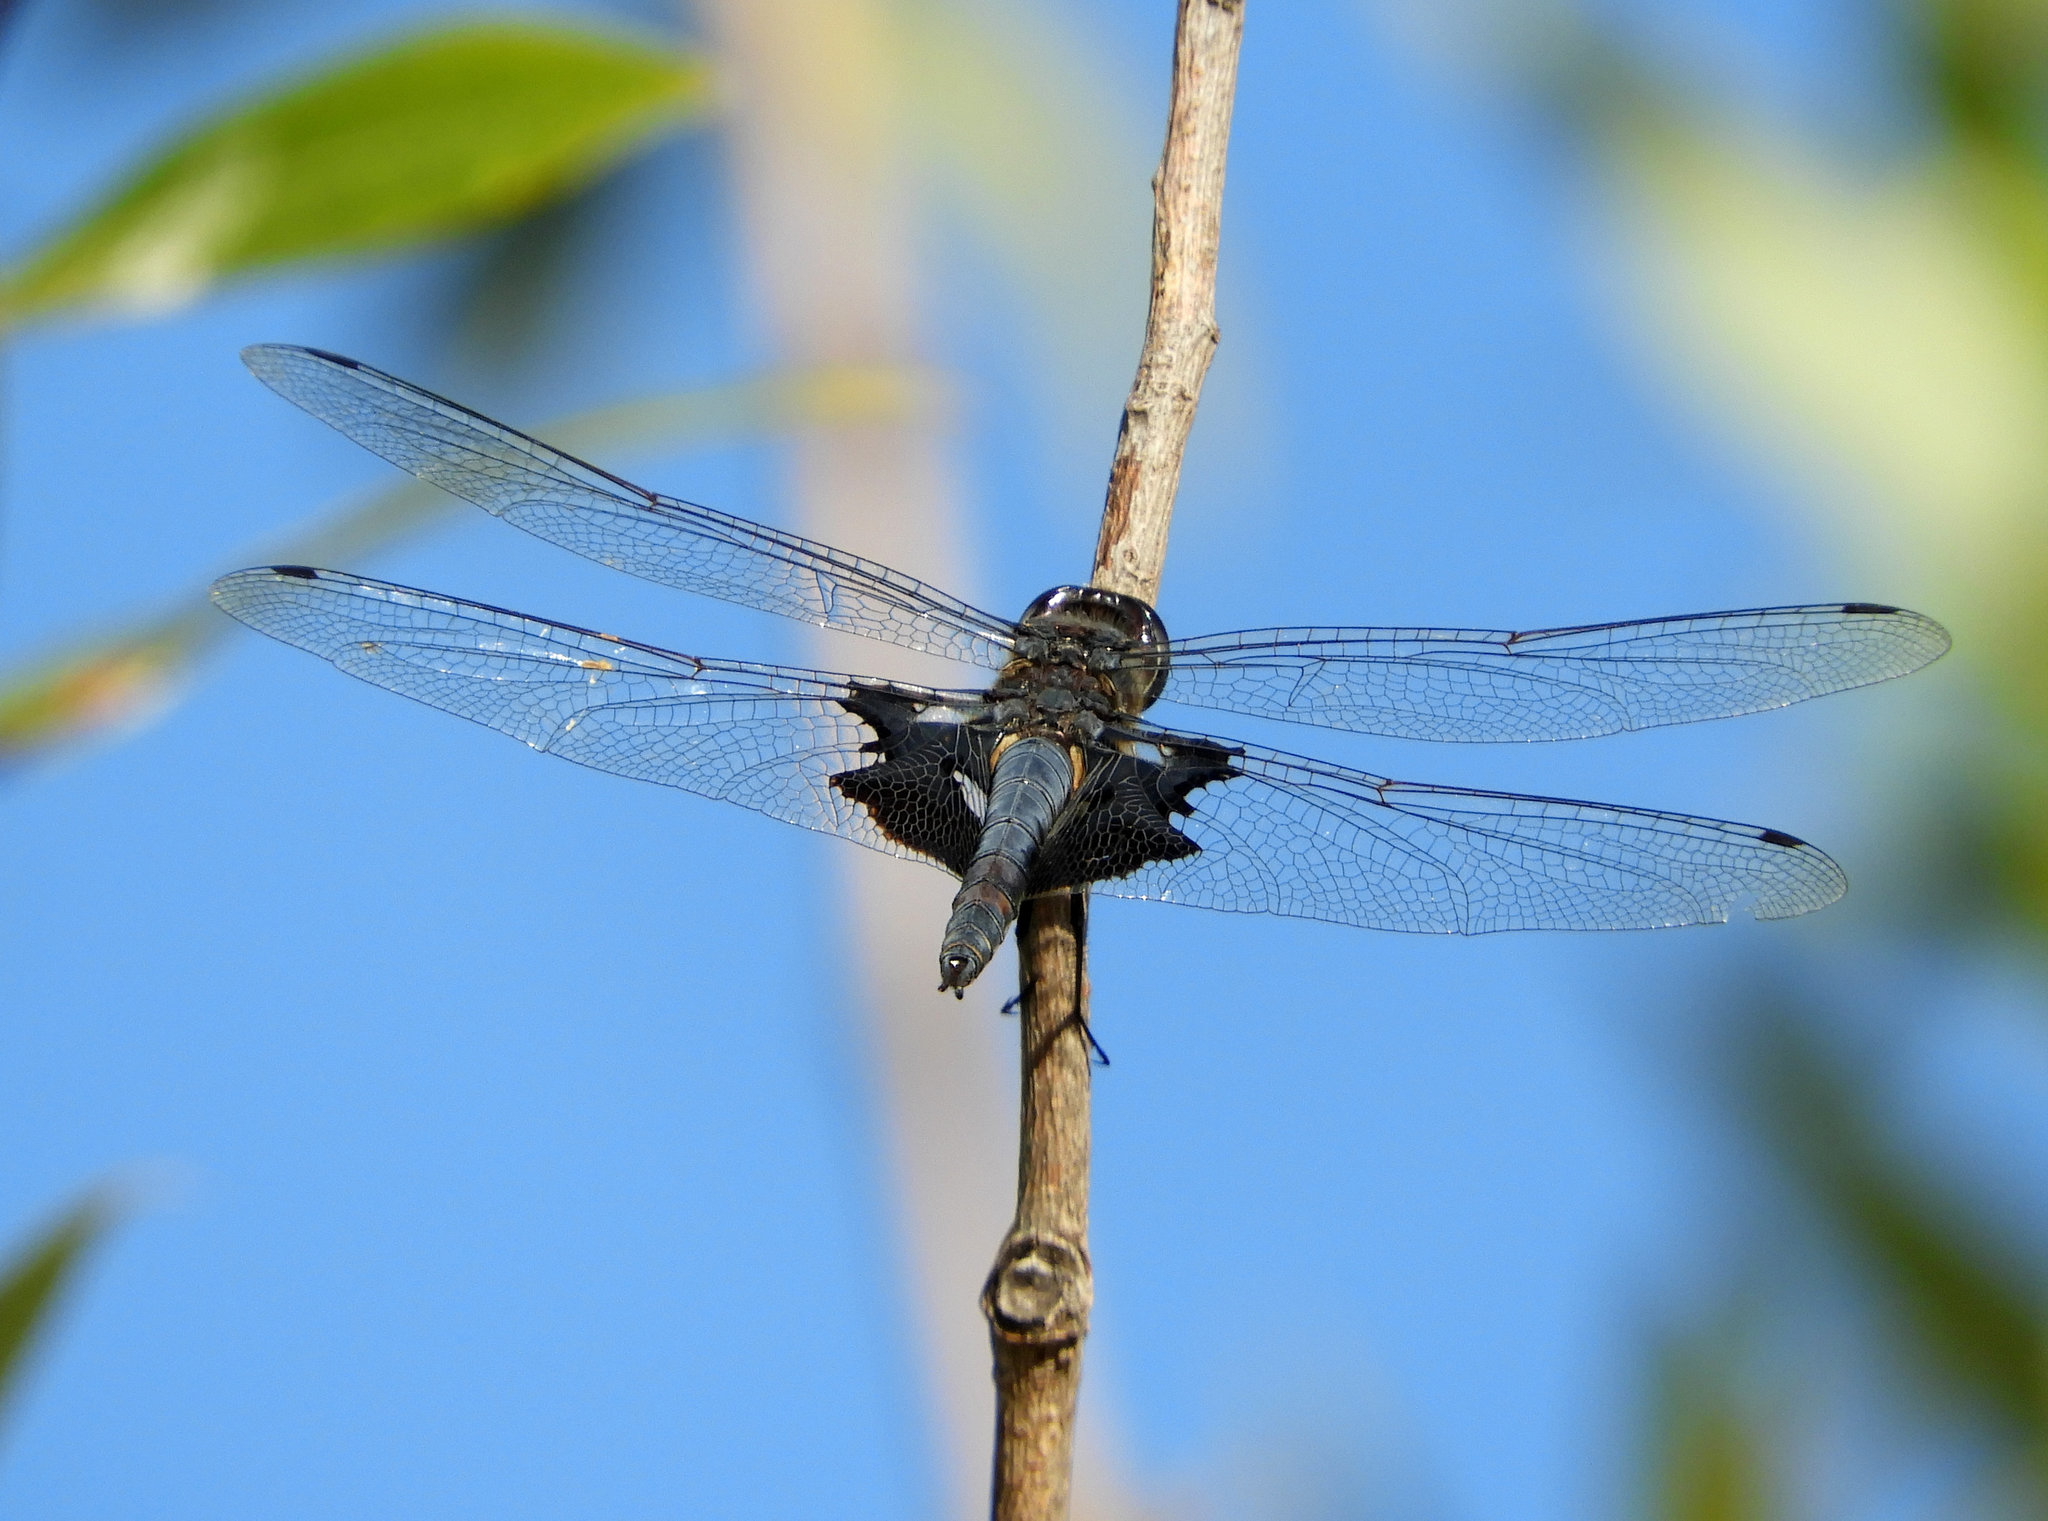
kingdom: Animalia
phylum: Arthropoda
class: Insecta
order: Odonata
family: Libellulidae
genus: Tramea
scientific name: Tramea lacerata
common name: Black saddlebags
